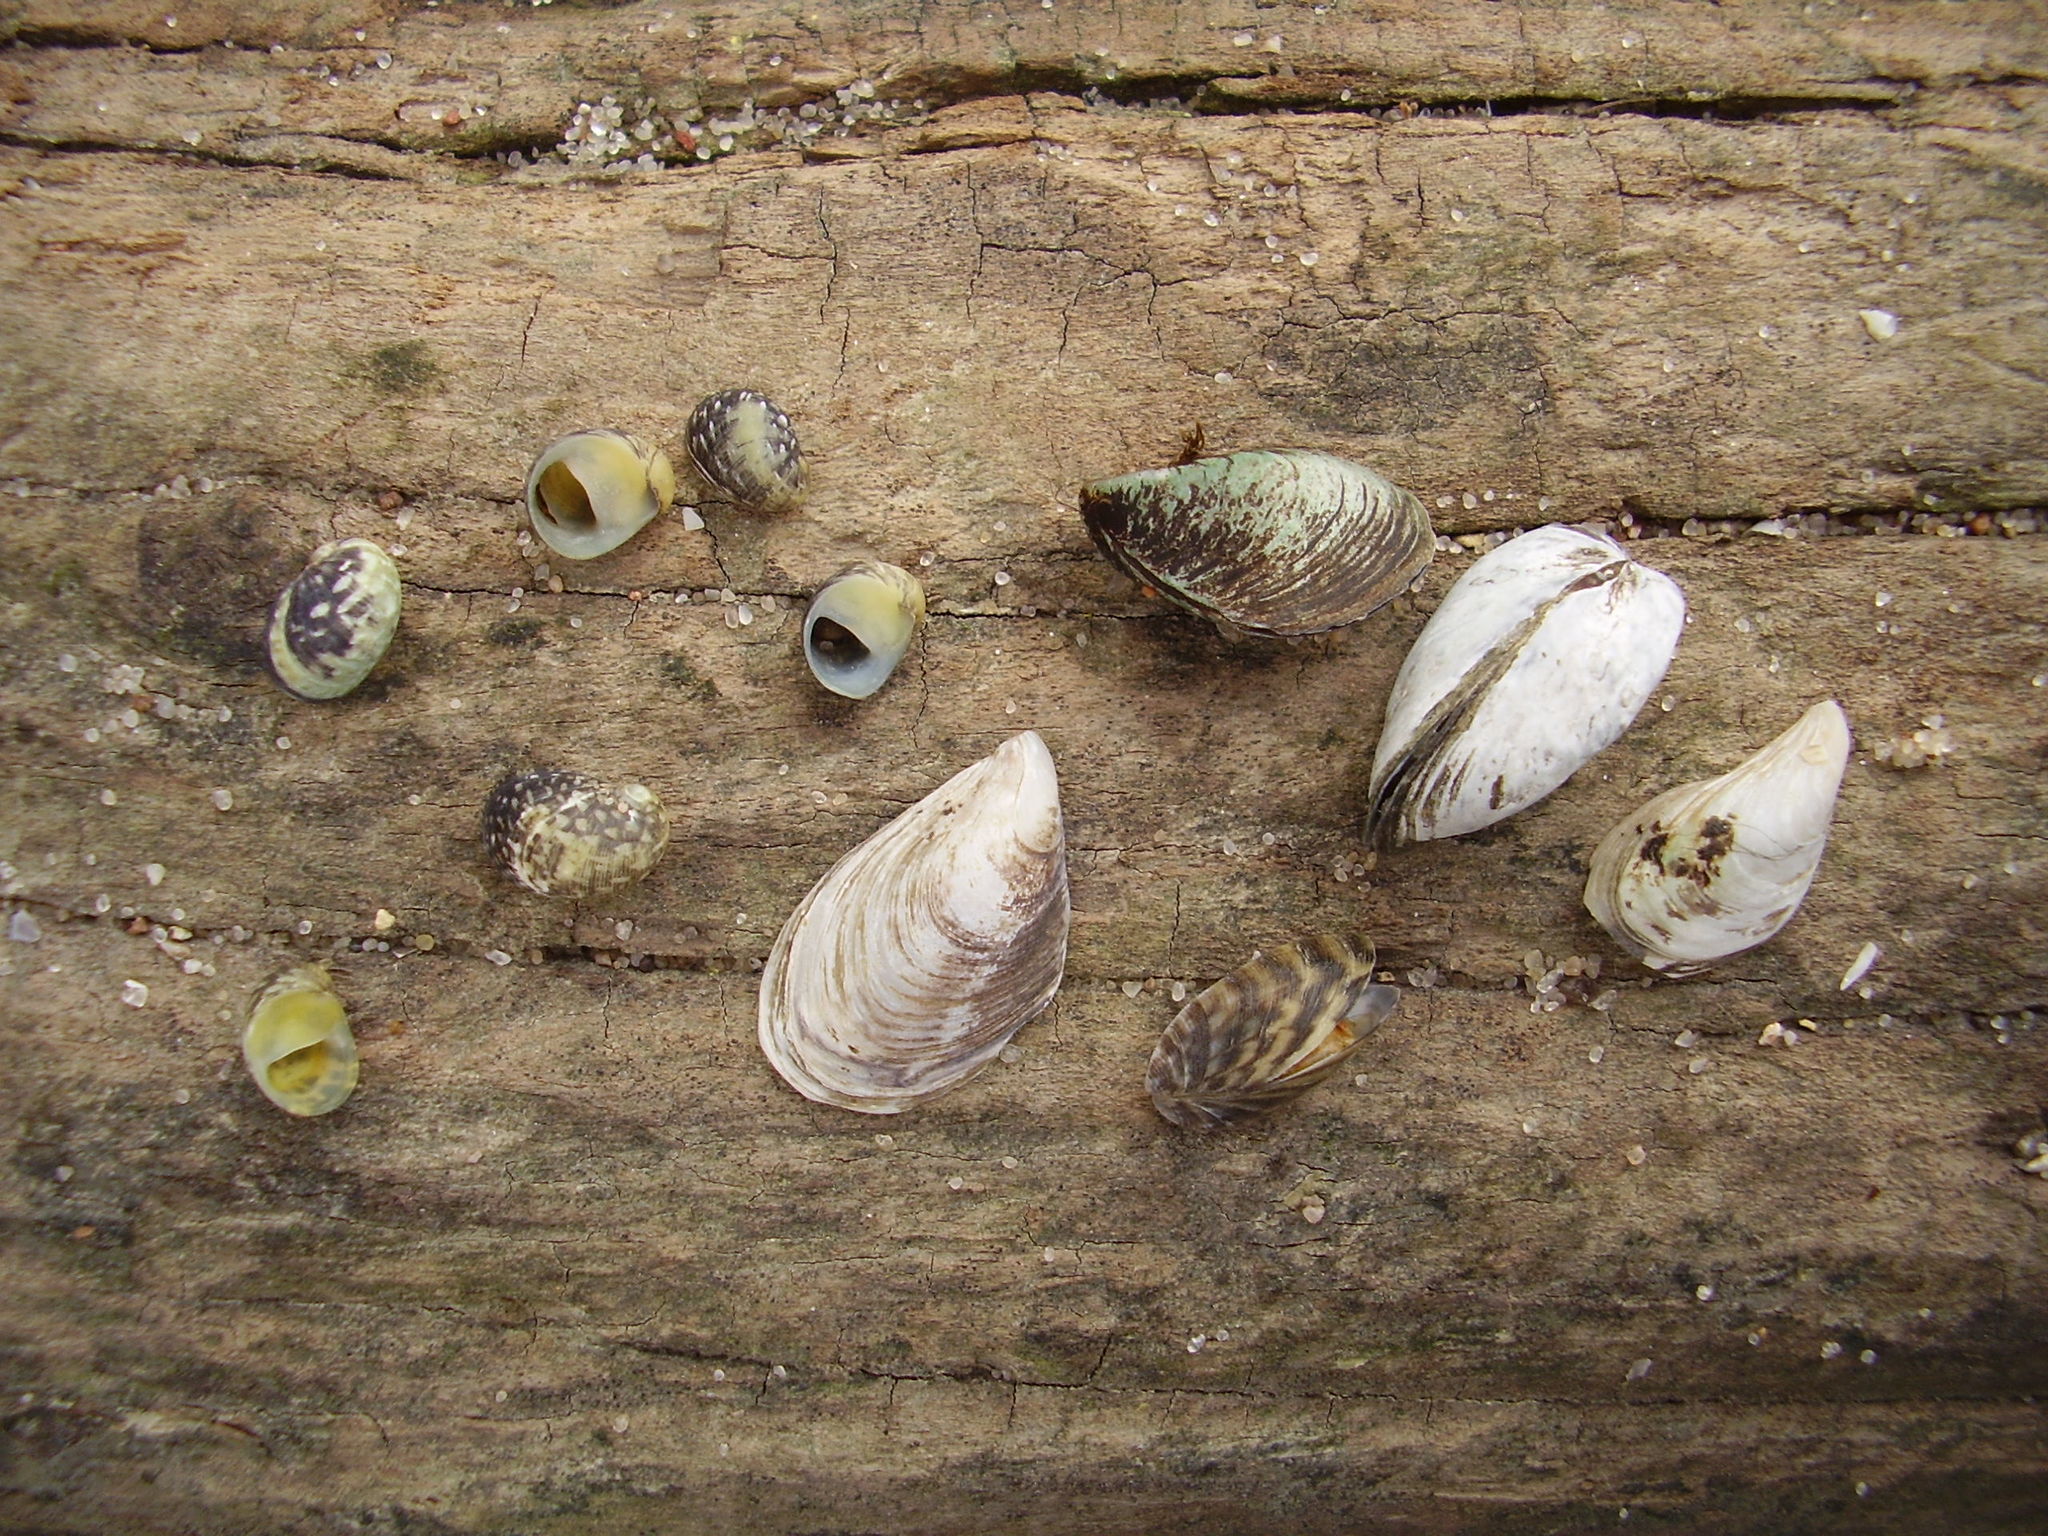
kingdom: Animalia
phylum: Mollusca
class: Gastropoda
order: Cycloneritida
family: Neritidae
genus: Theodoxus
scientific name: Theodoxus fluviatilis
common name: River nerite
